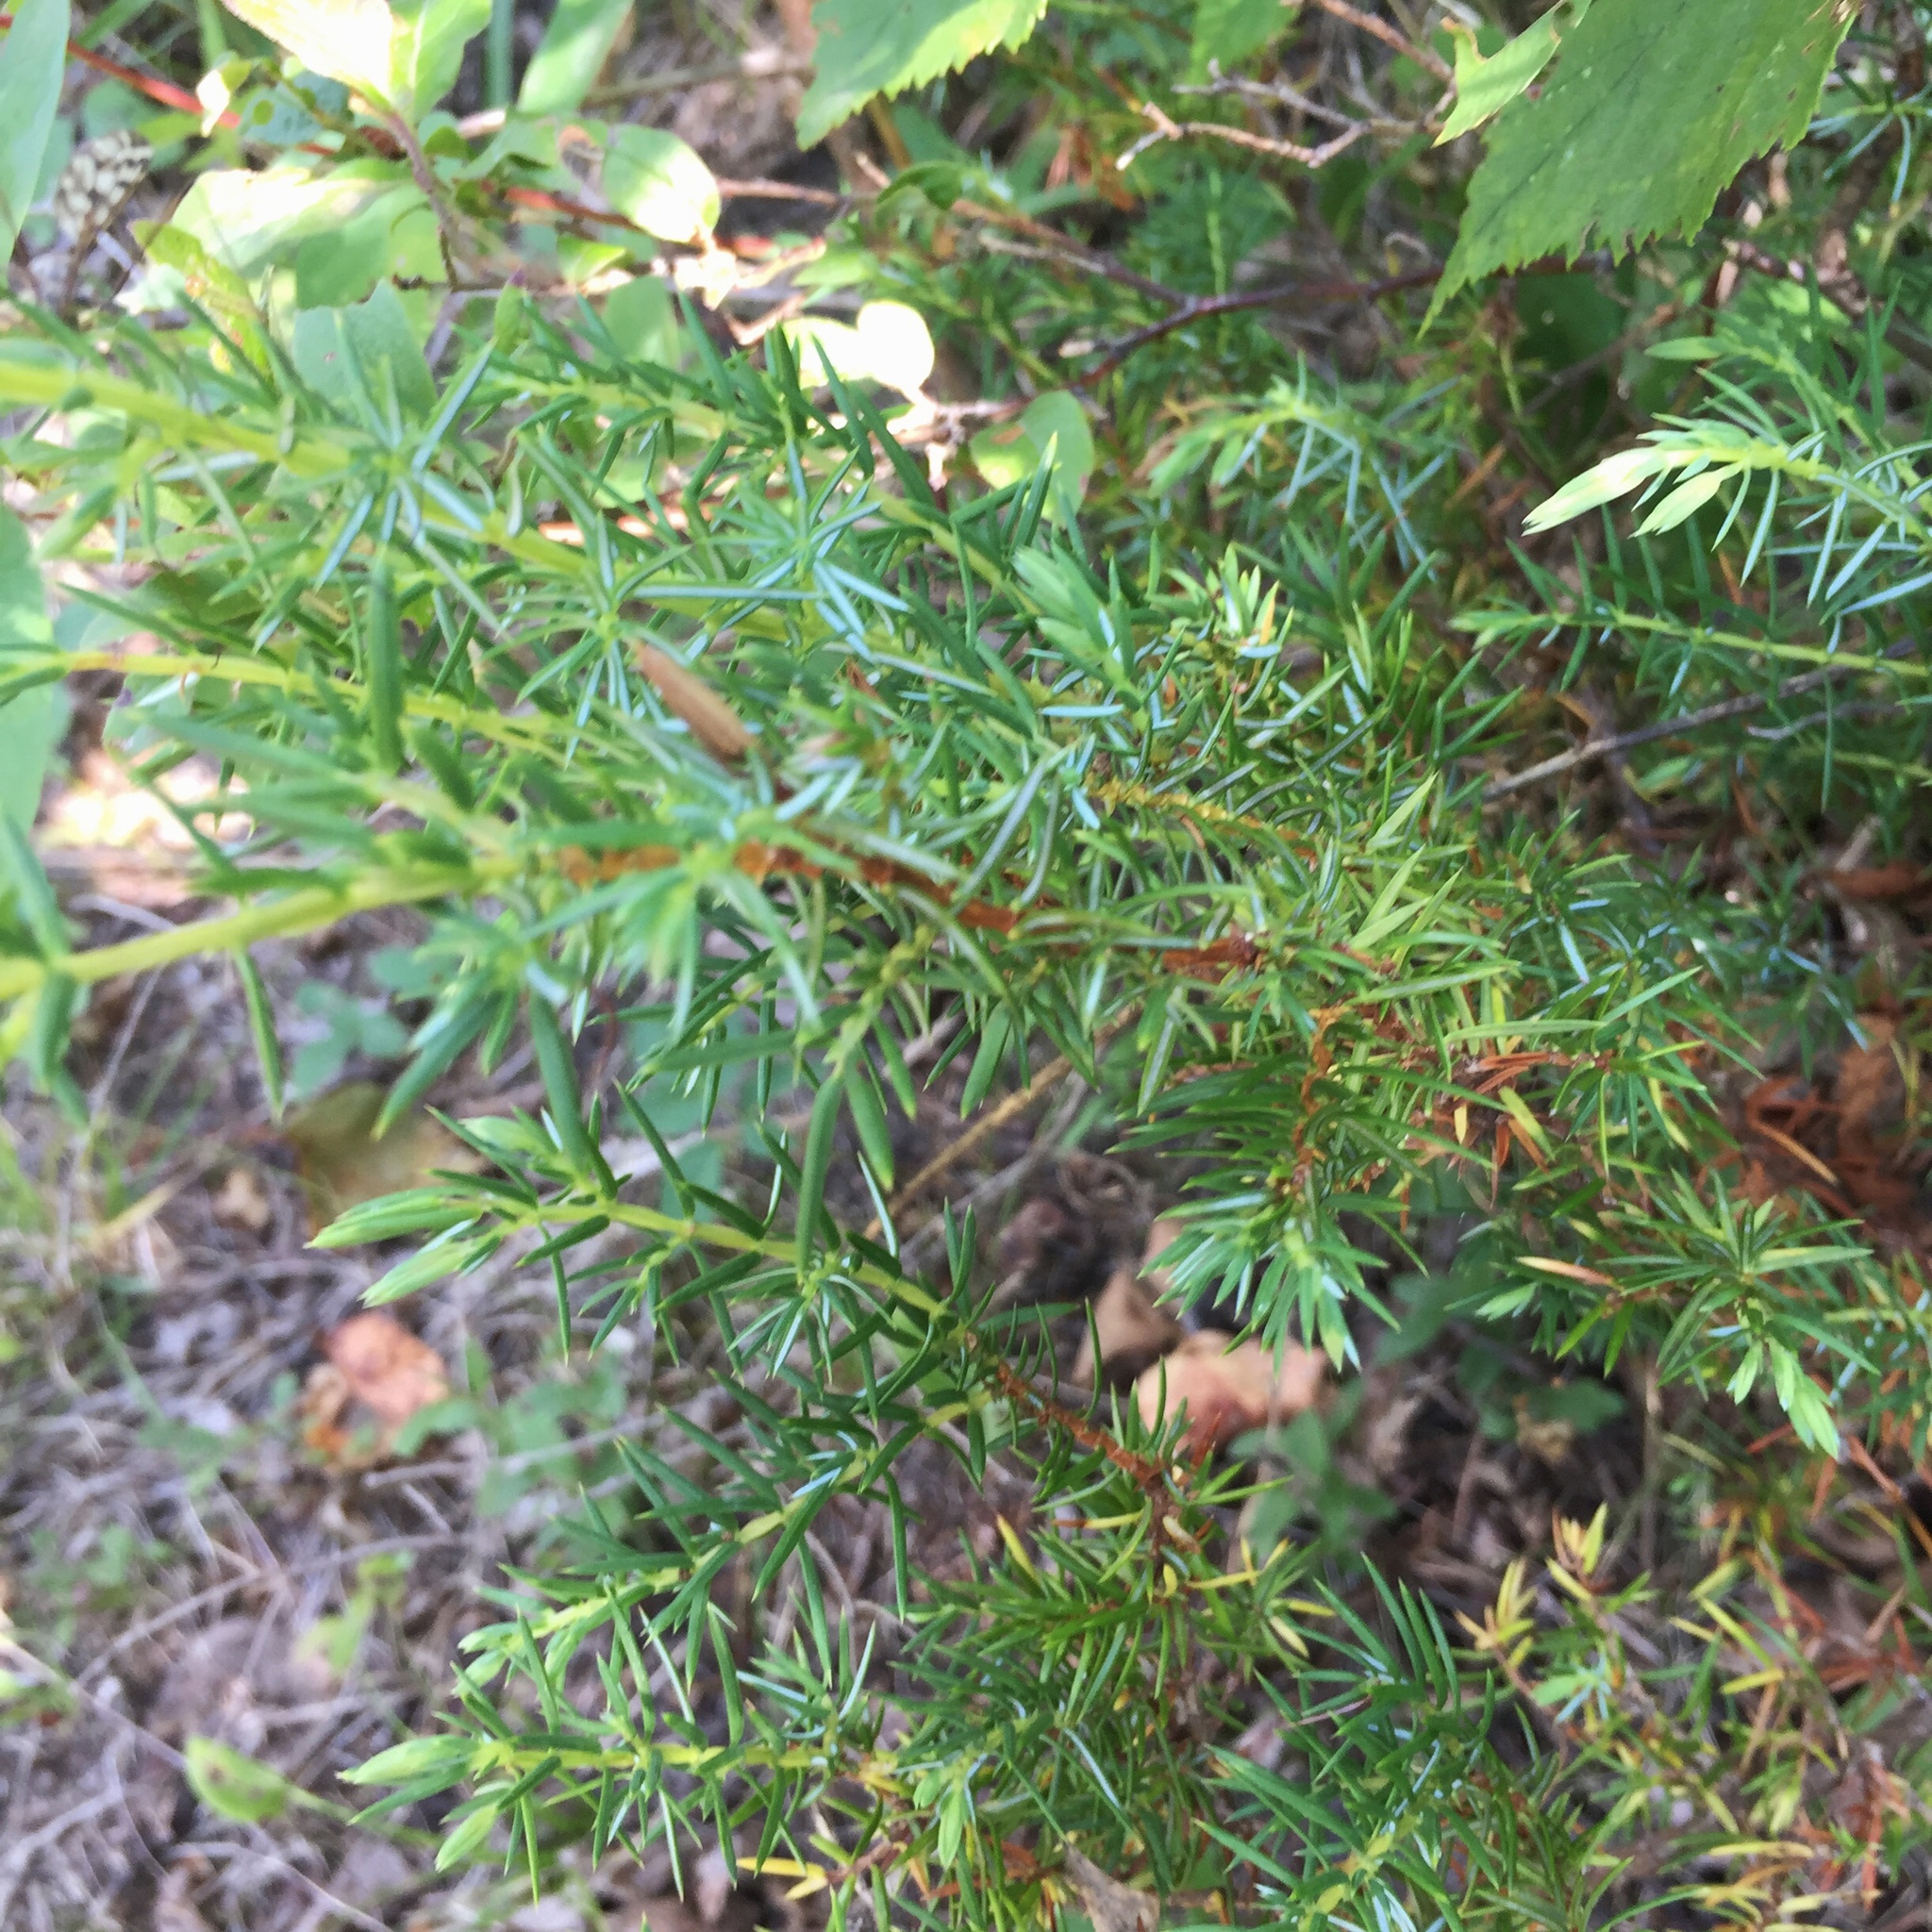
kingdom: Plantae
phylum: Tracheophyta
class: Pinopsida
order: Pinales
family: Cupressaceae
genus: Juniperus
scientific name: Juniperus communis
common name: Common juniper
